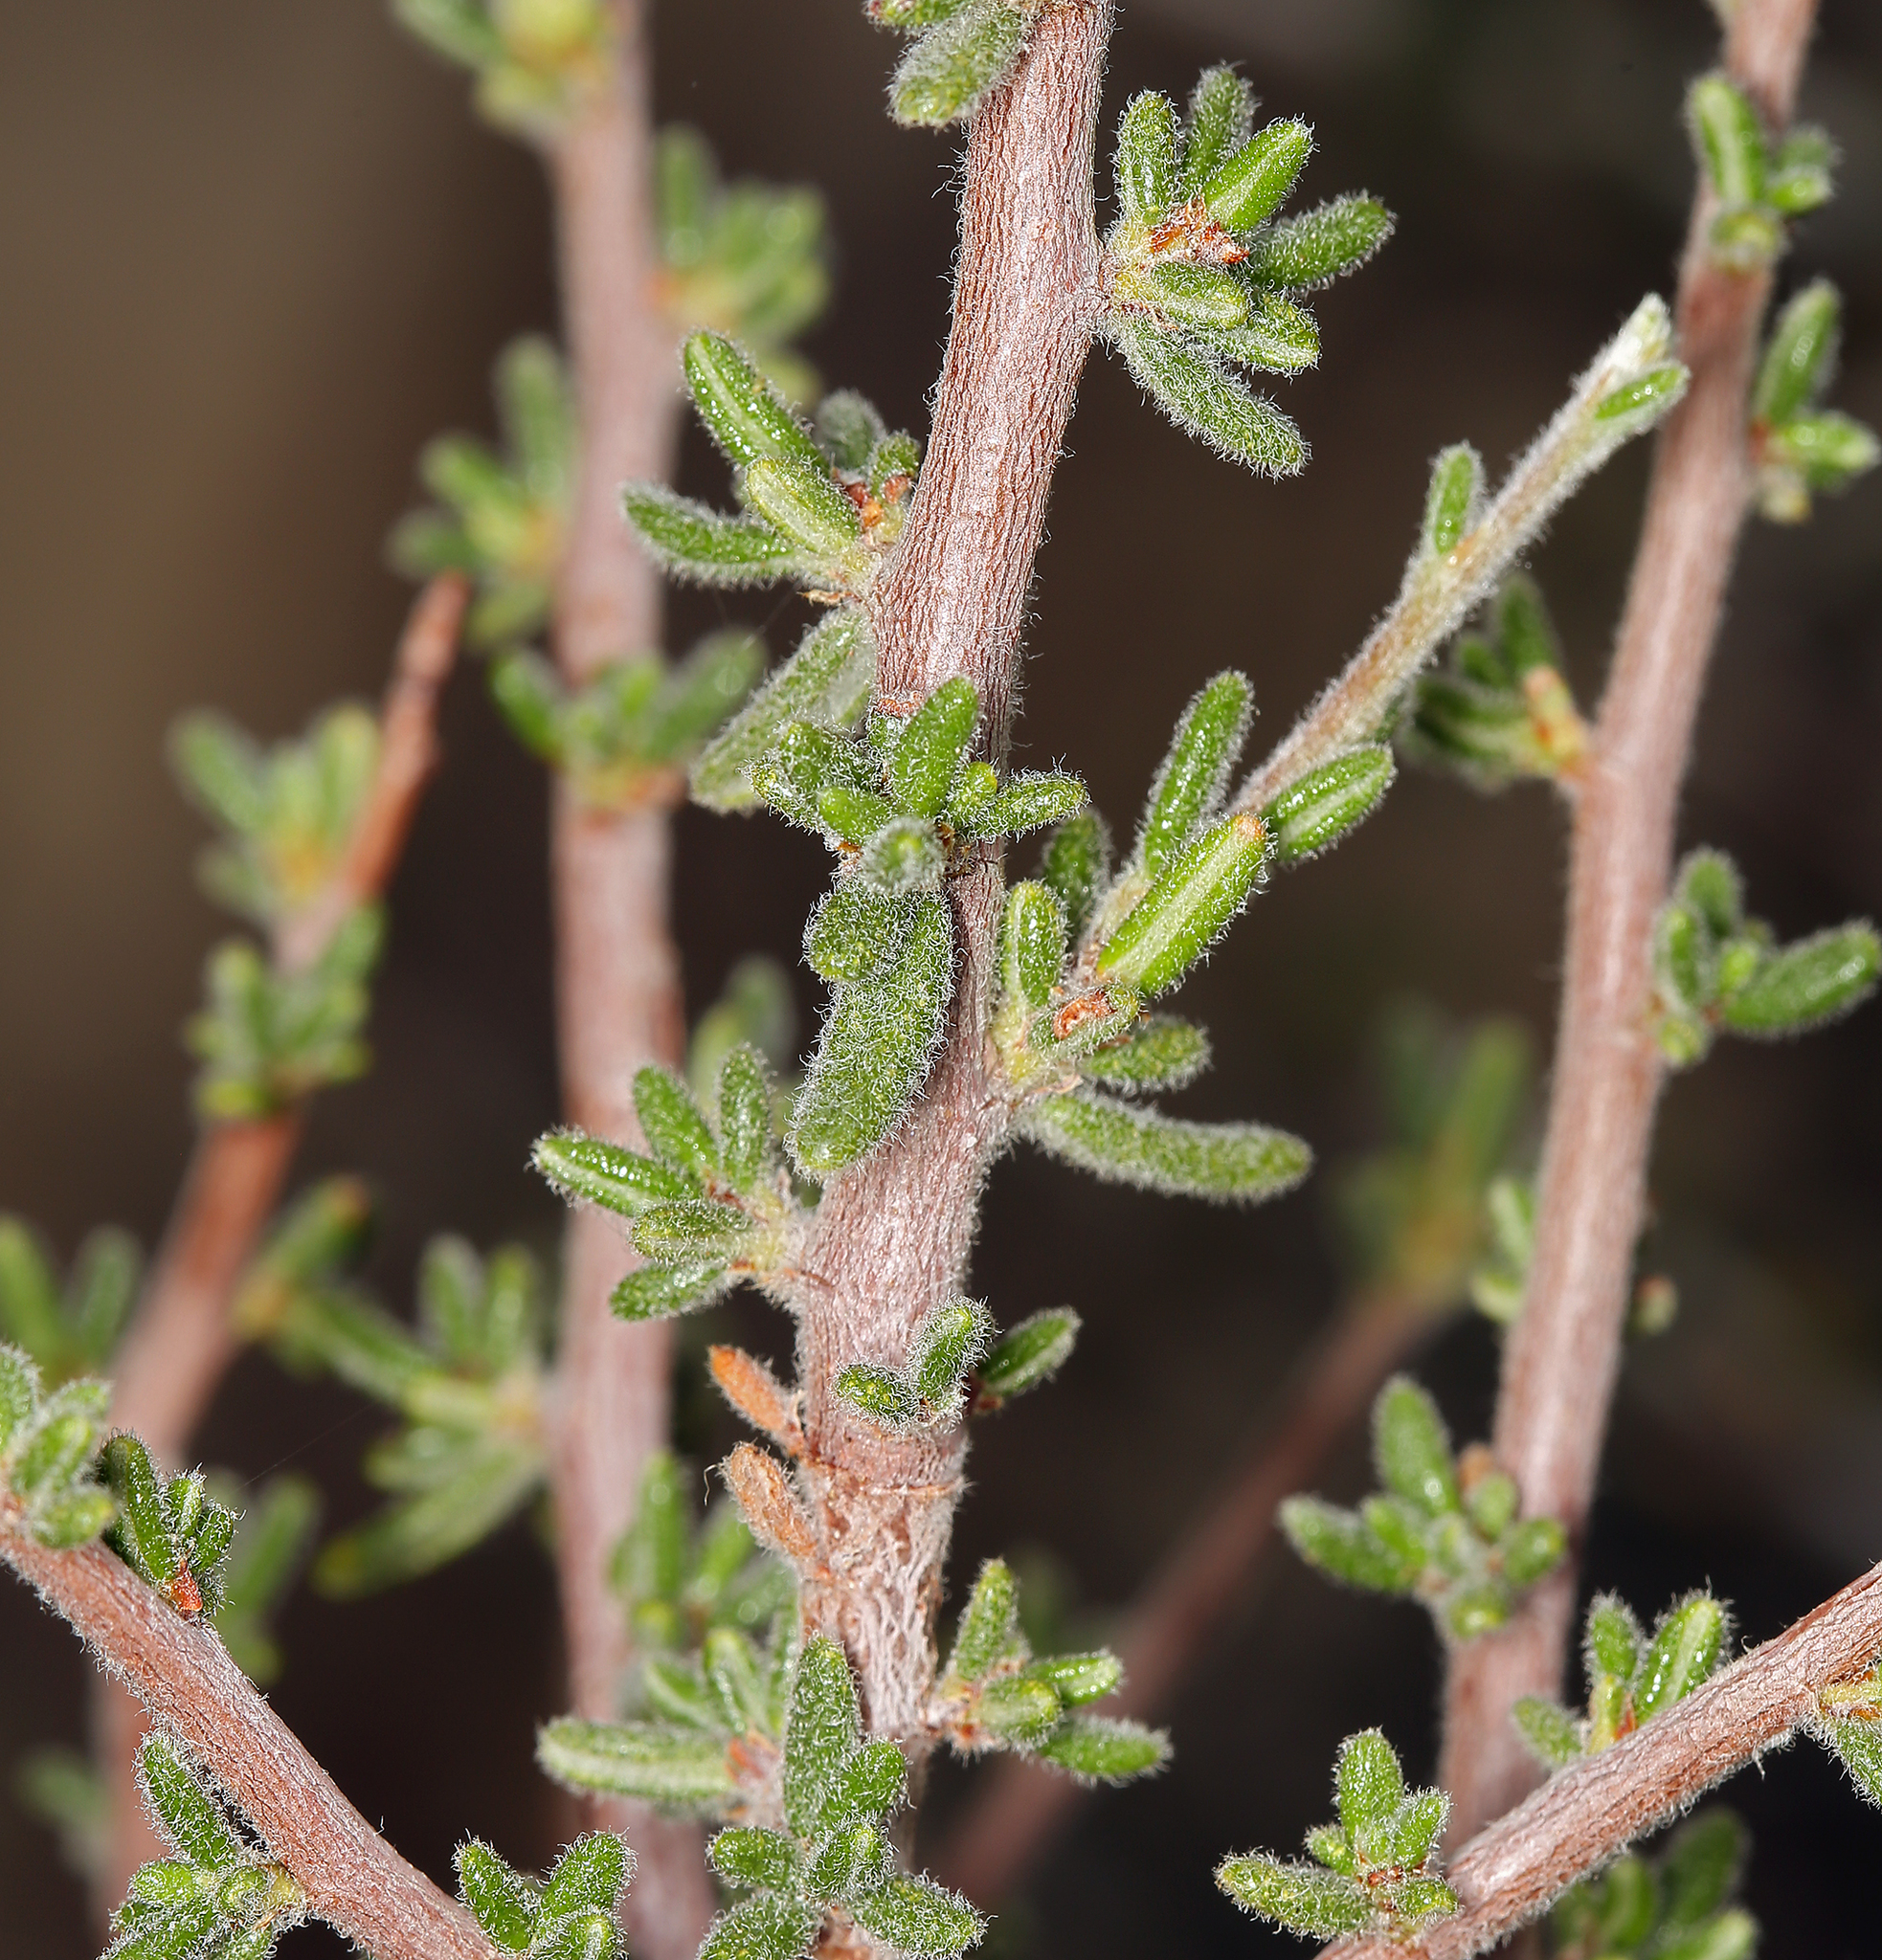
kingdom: Plantae
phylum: Tracheophyta
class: Magnoliopsida
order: Rosales
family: Rosaceae
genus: Cercocarpus
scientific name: Cercocarpus intricatus
